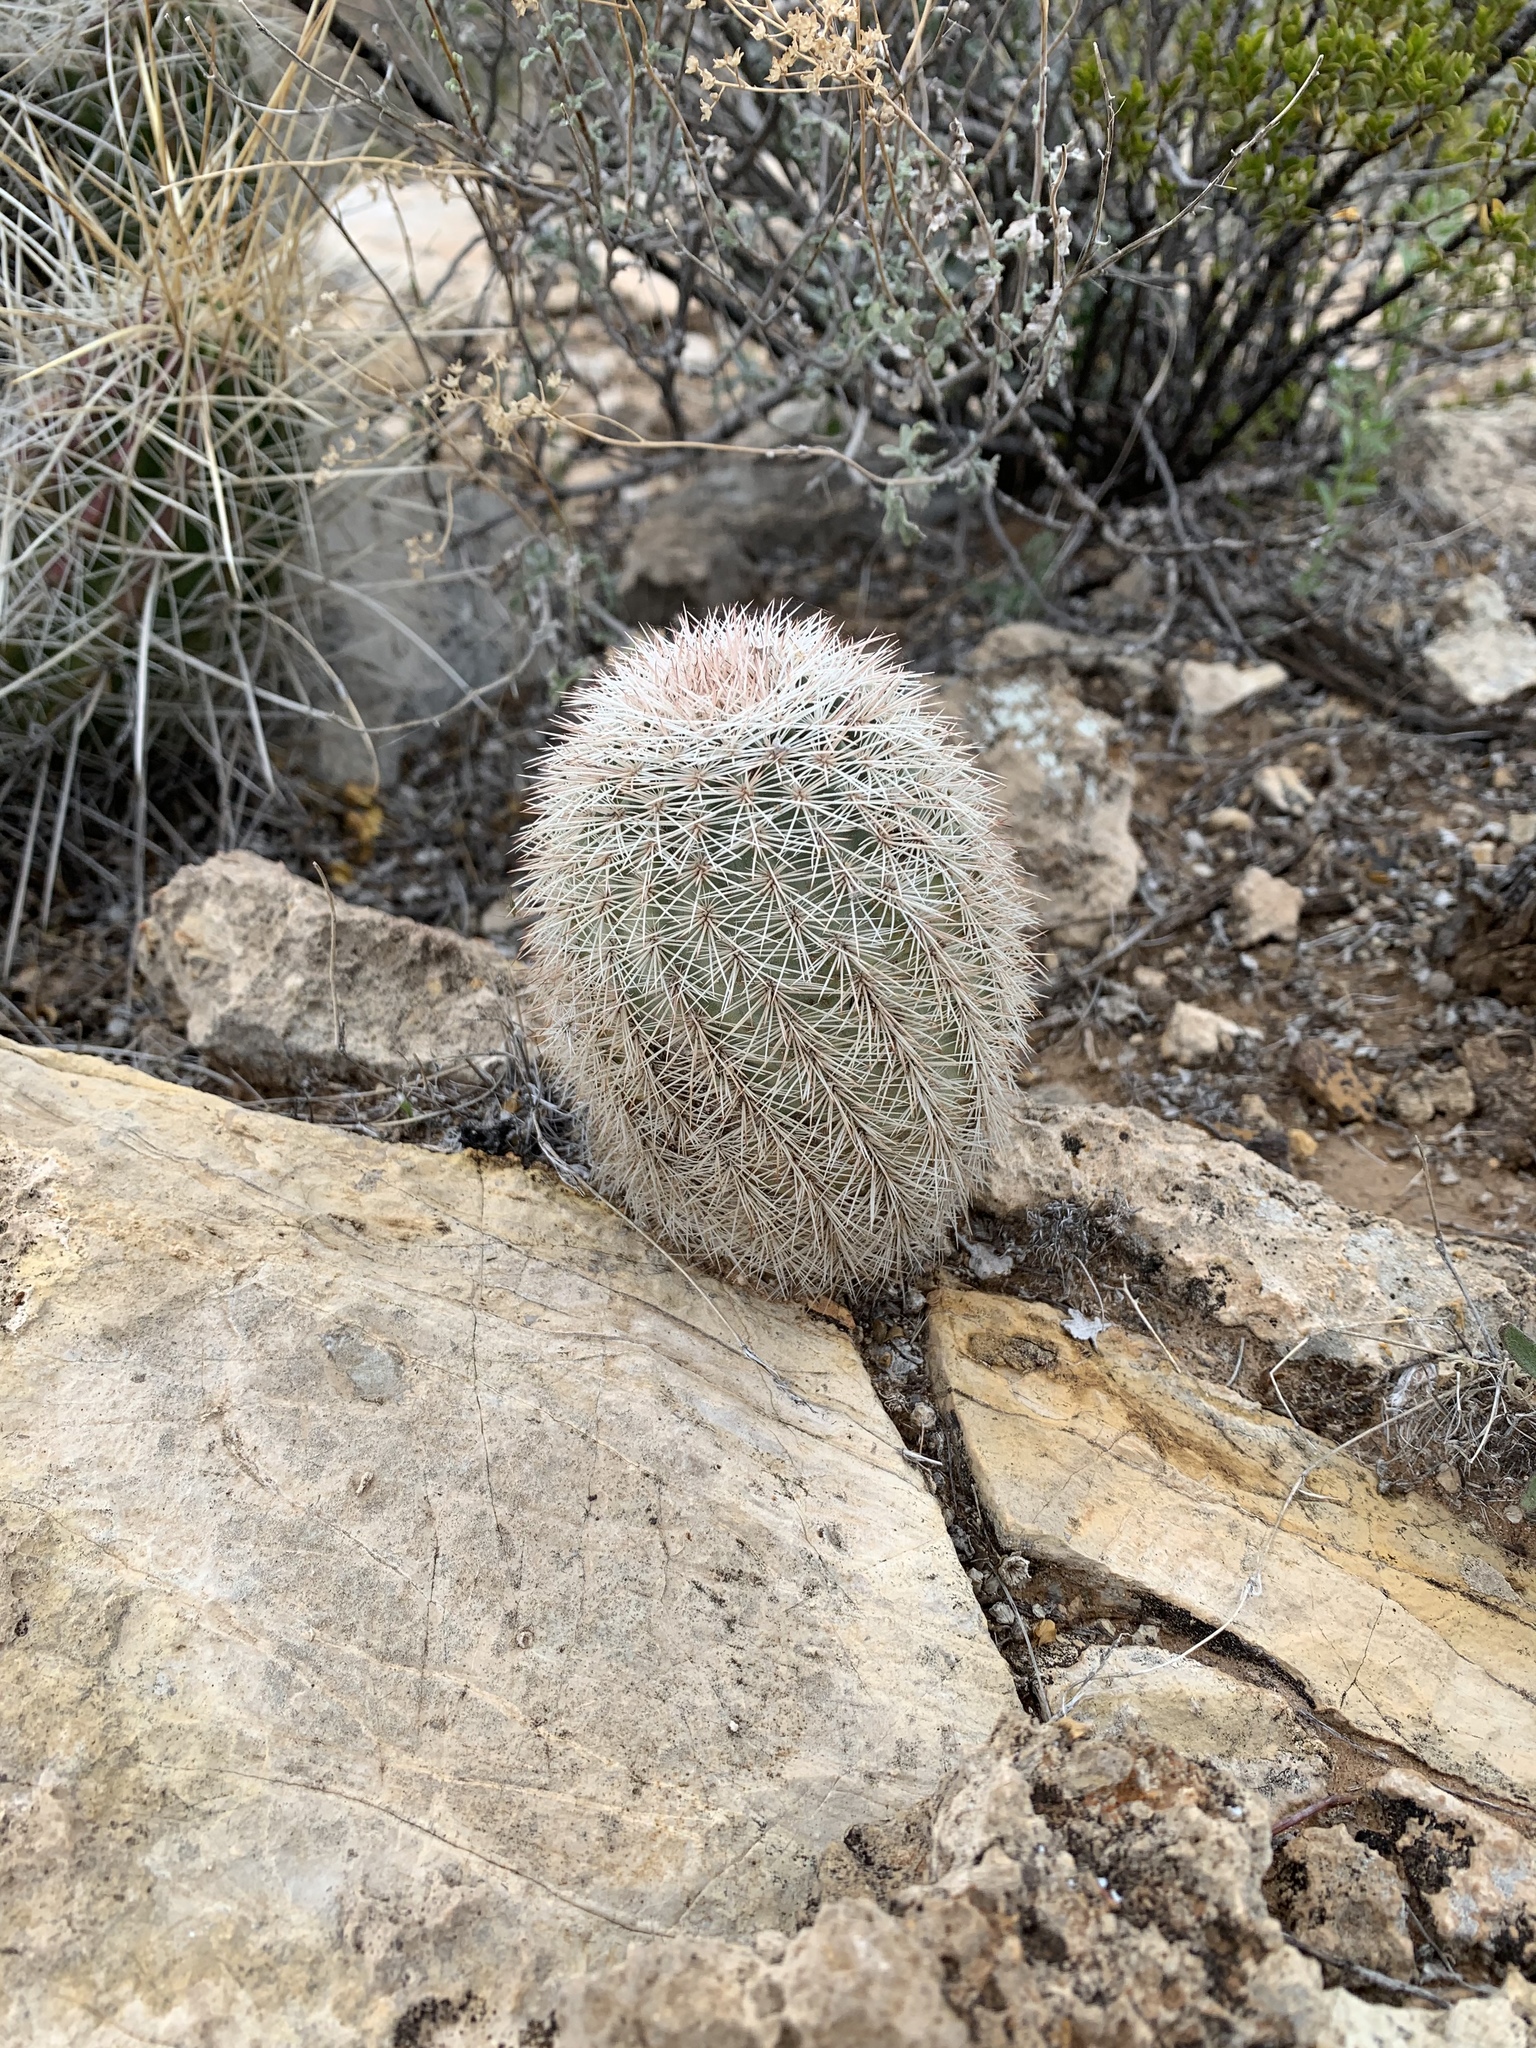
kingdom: Plantae
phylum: Tracheophyta
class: Magnoliopsida
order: Caryophyllales
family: Cactaceae
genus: Echinocereus
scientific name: Echinocereus dasyacanthus
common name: Spiny hedgehog cactus
